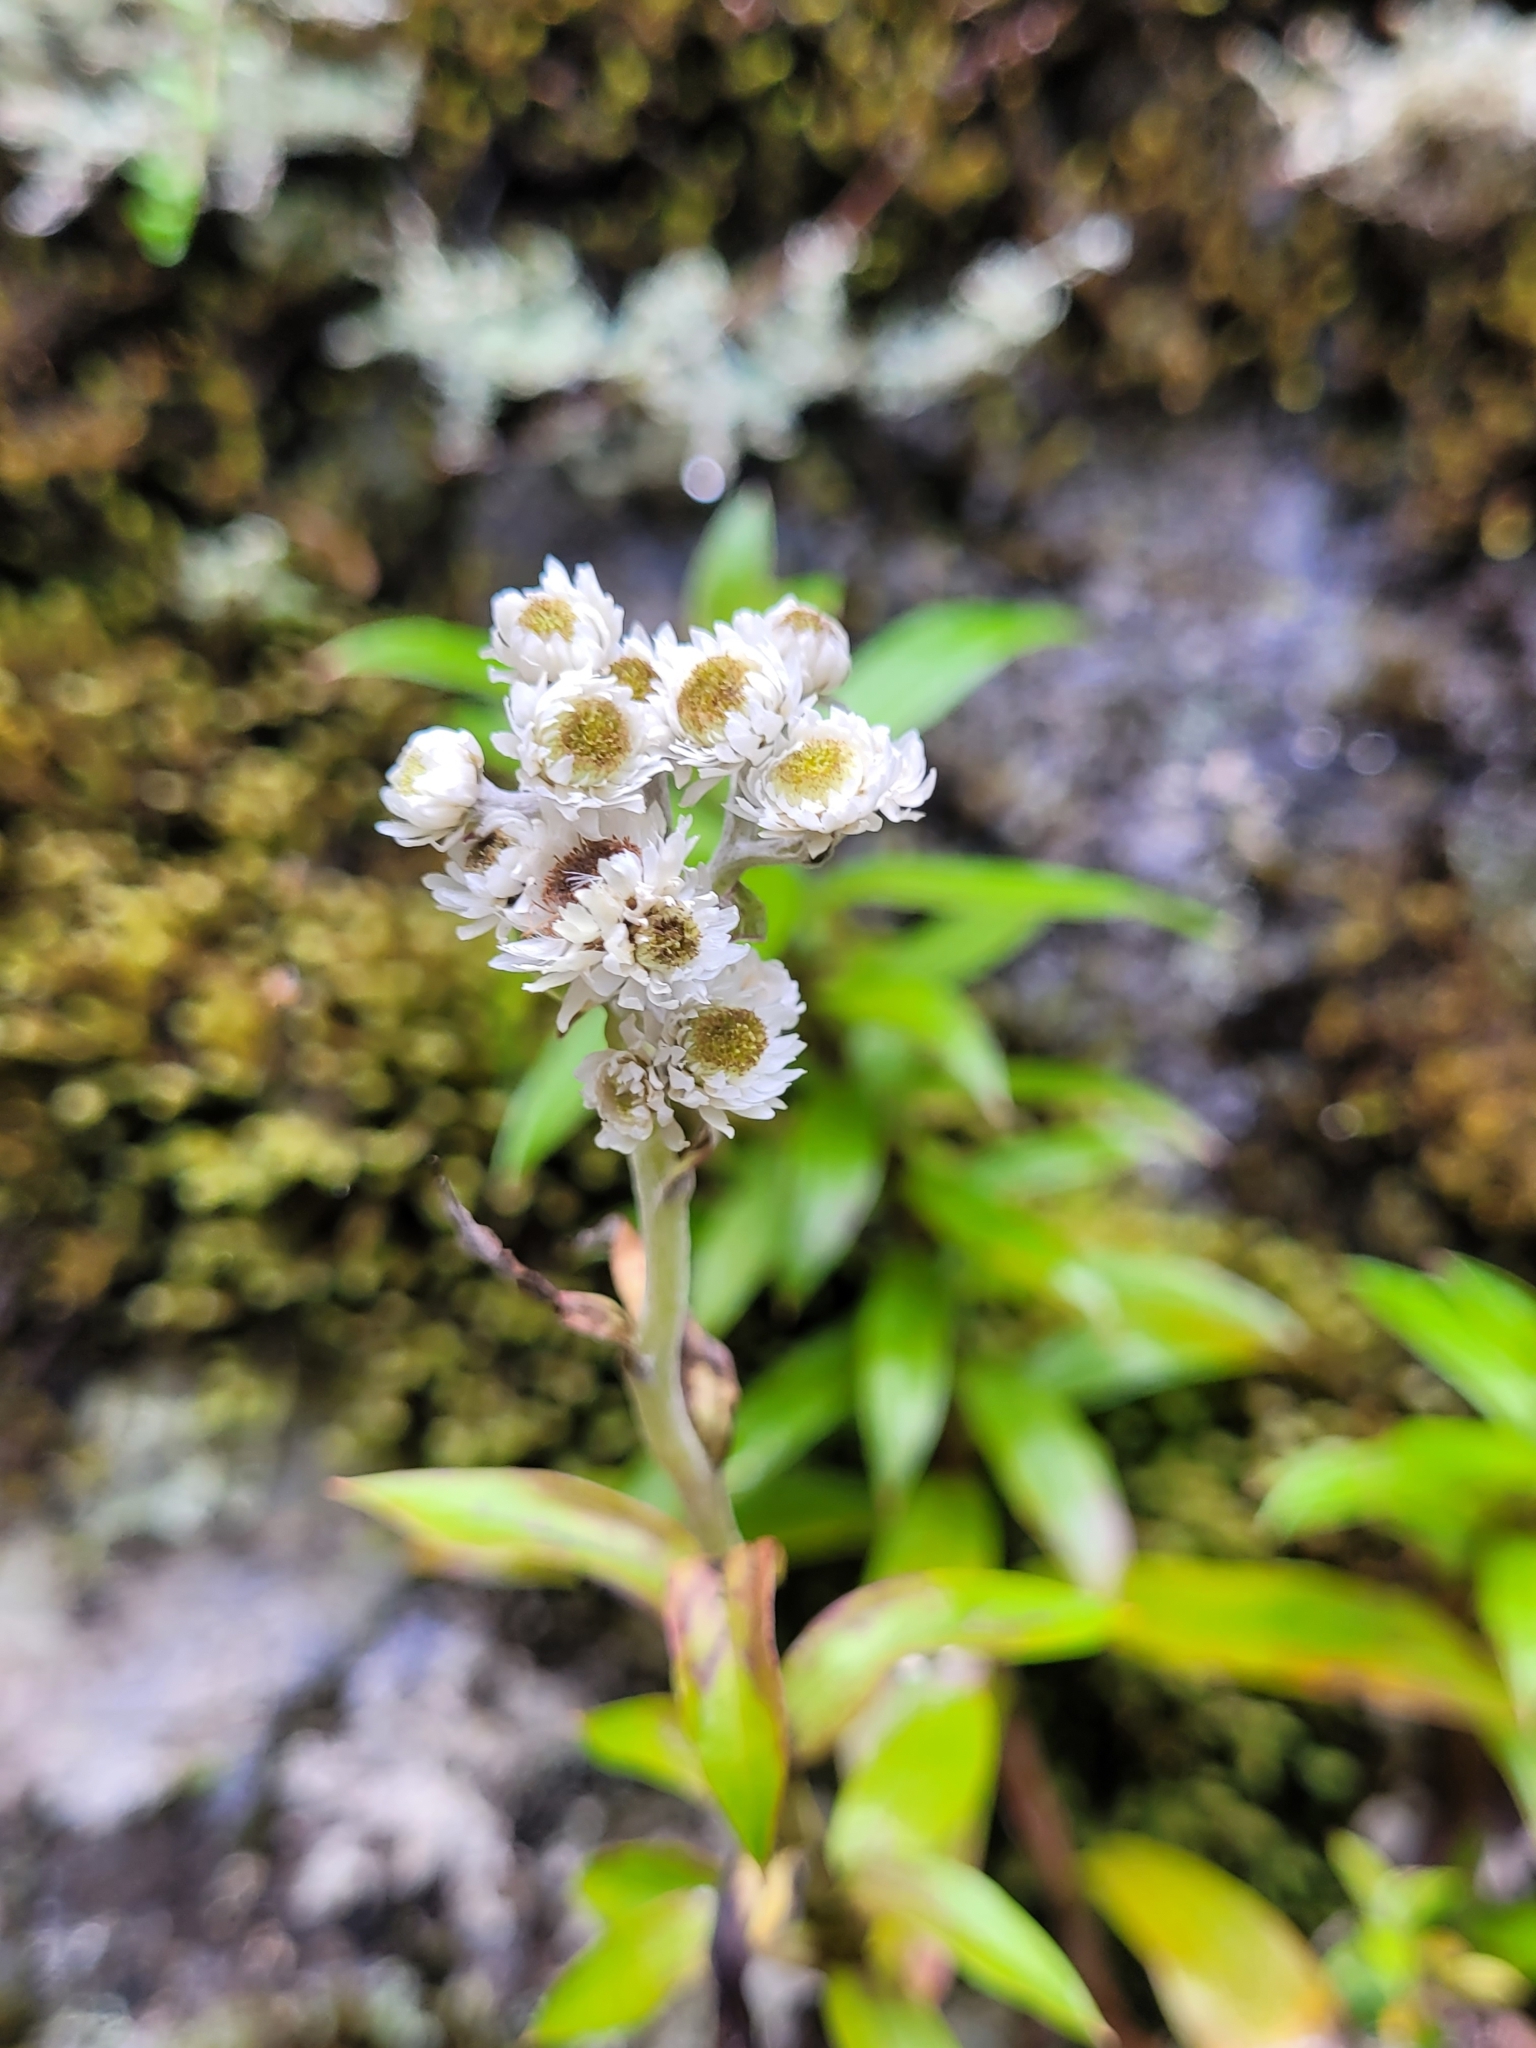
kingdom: Plantae
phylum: Tracheophyta
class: Magnoliopsida
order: Asterales
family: Asteraceae
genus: Anaphalioides
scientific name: Anaphalioides trinervis
